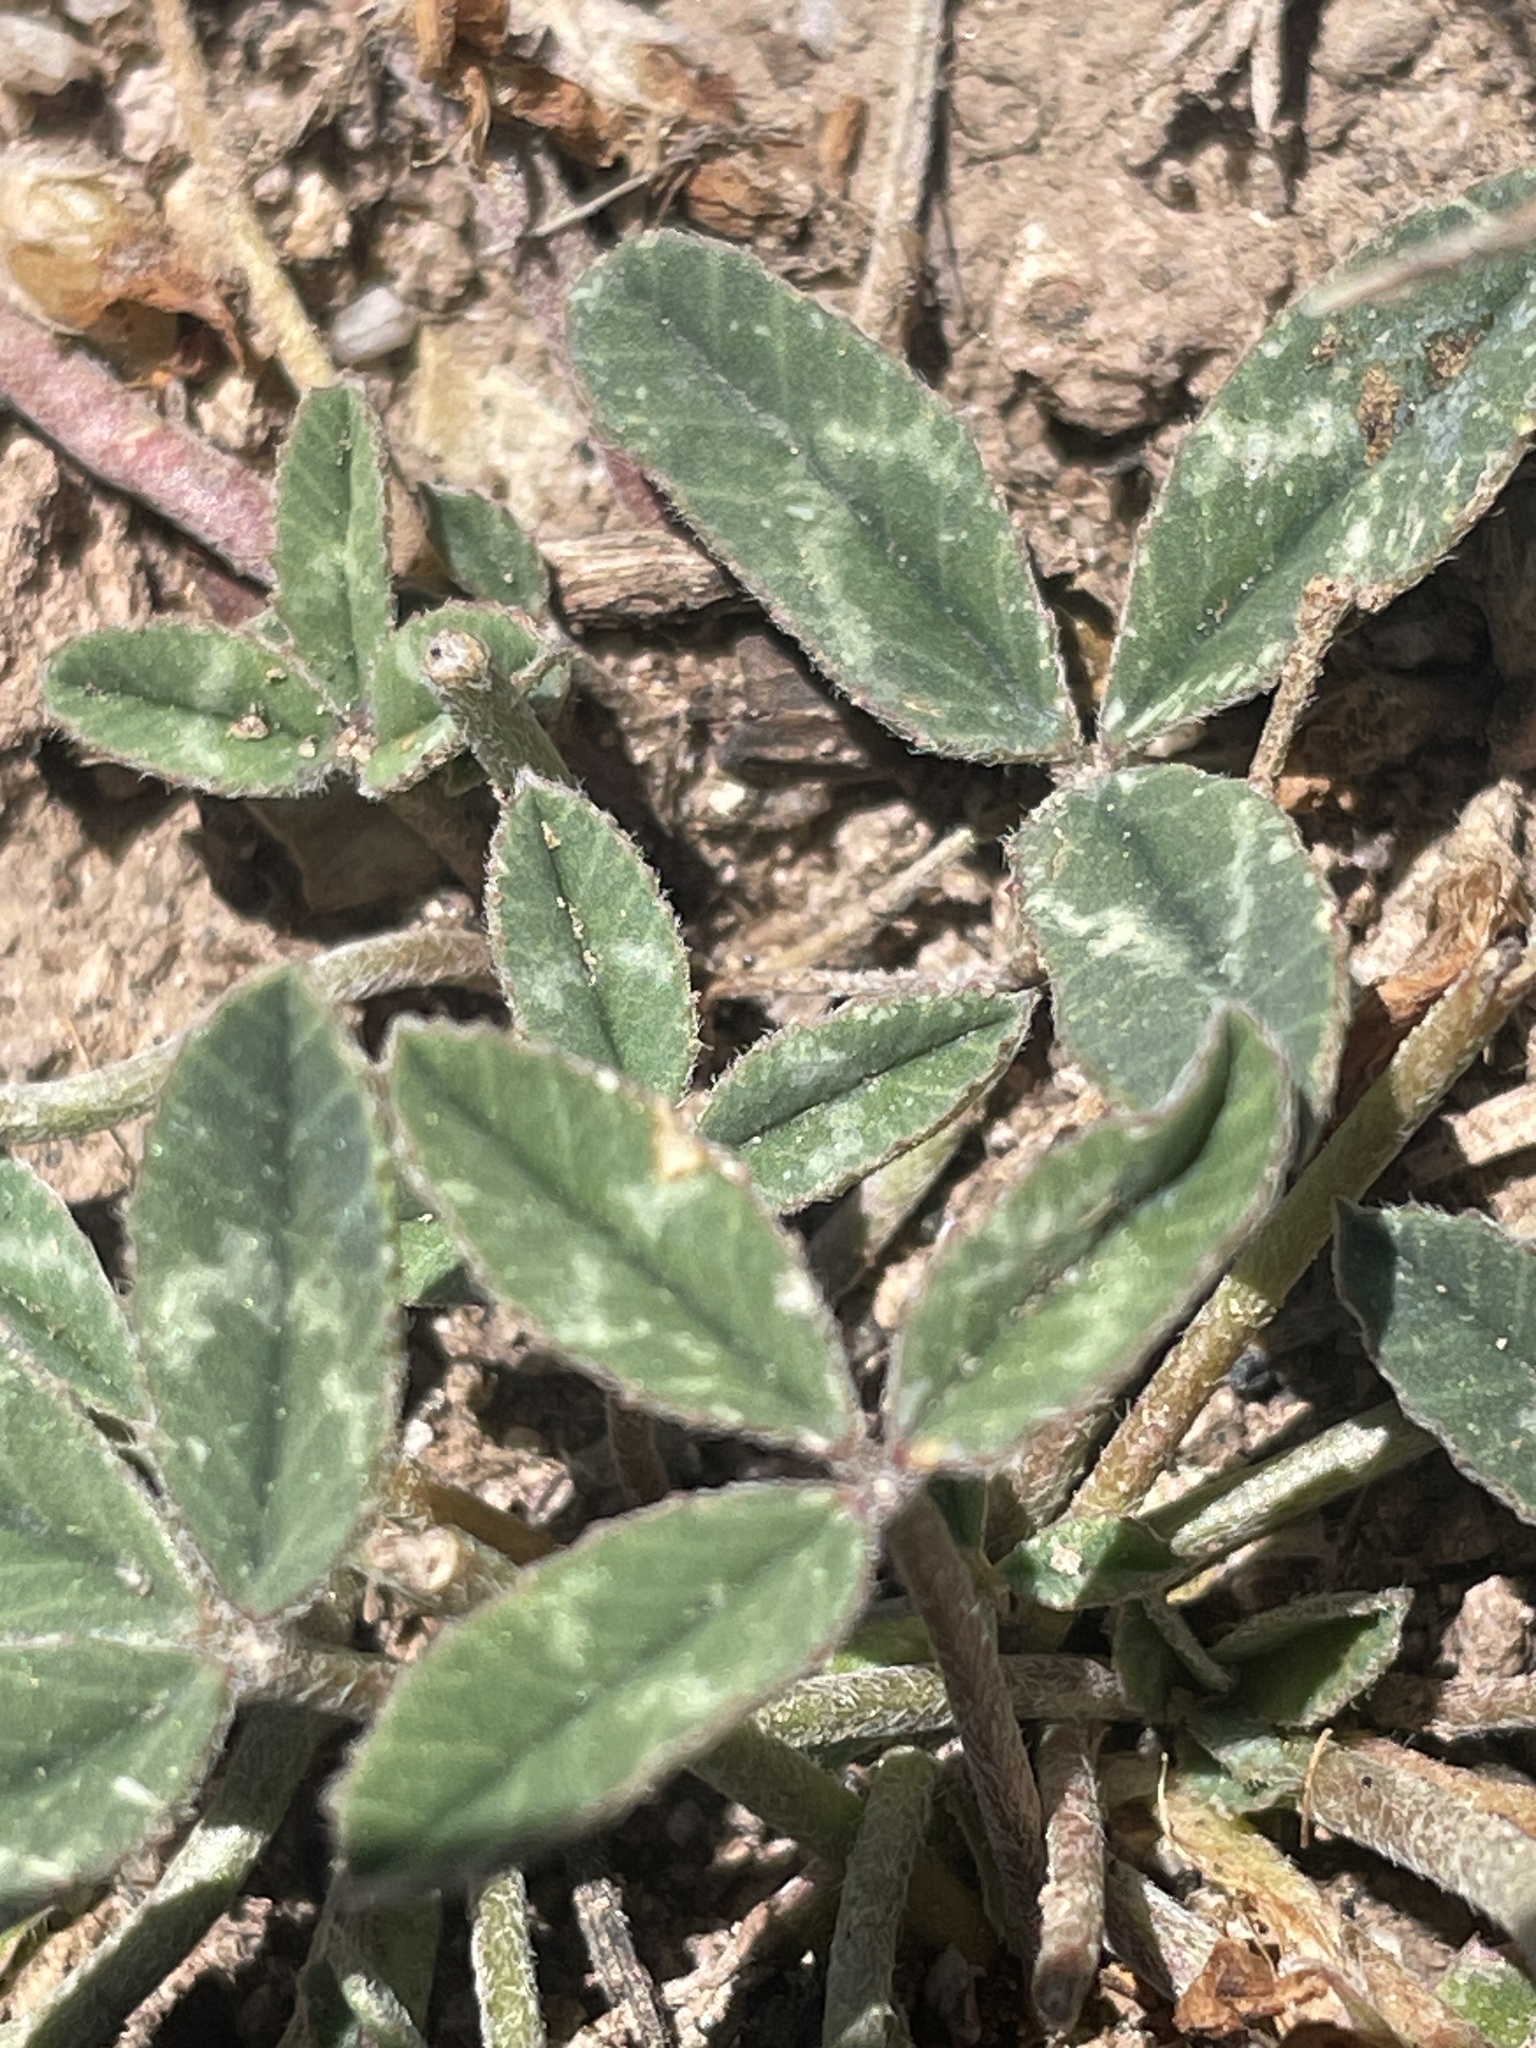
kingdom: Plantae
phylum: Tracheophyta
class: Magnoliopsida
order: Fabales
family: Fabaceae
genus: Trifolium
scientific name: Trifolium gymnocarpon
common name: Tufted clover
